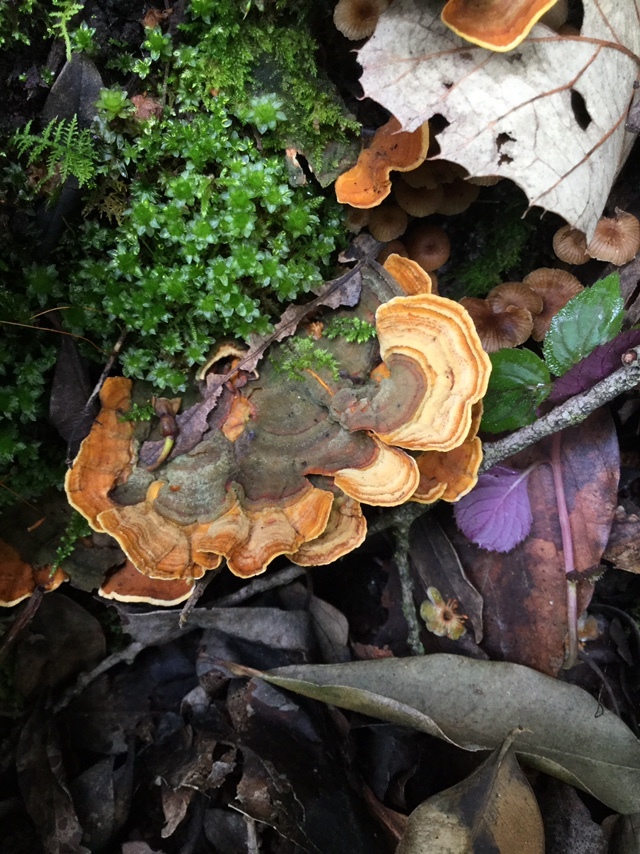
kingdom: Fungi
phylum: Basidiomycota
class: Agaricomycetes
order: Russulales
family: Stereaceae
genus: Stereum
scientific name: Stereum lobatum
